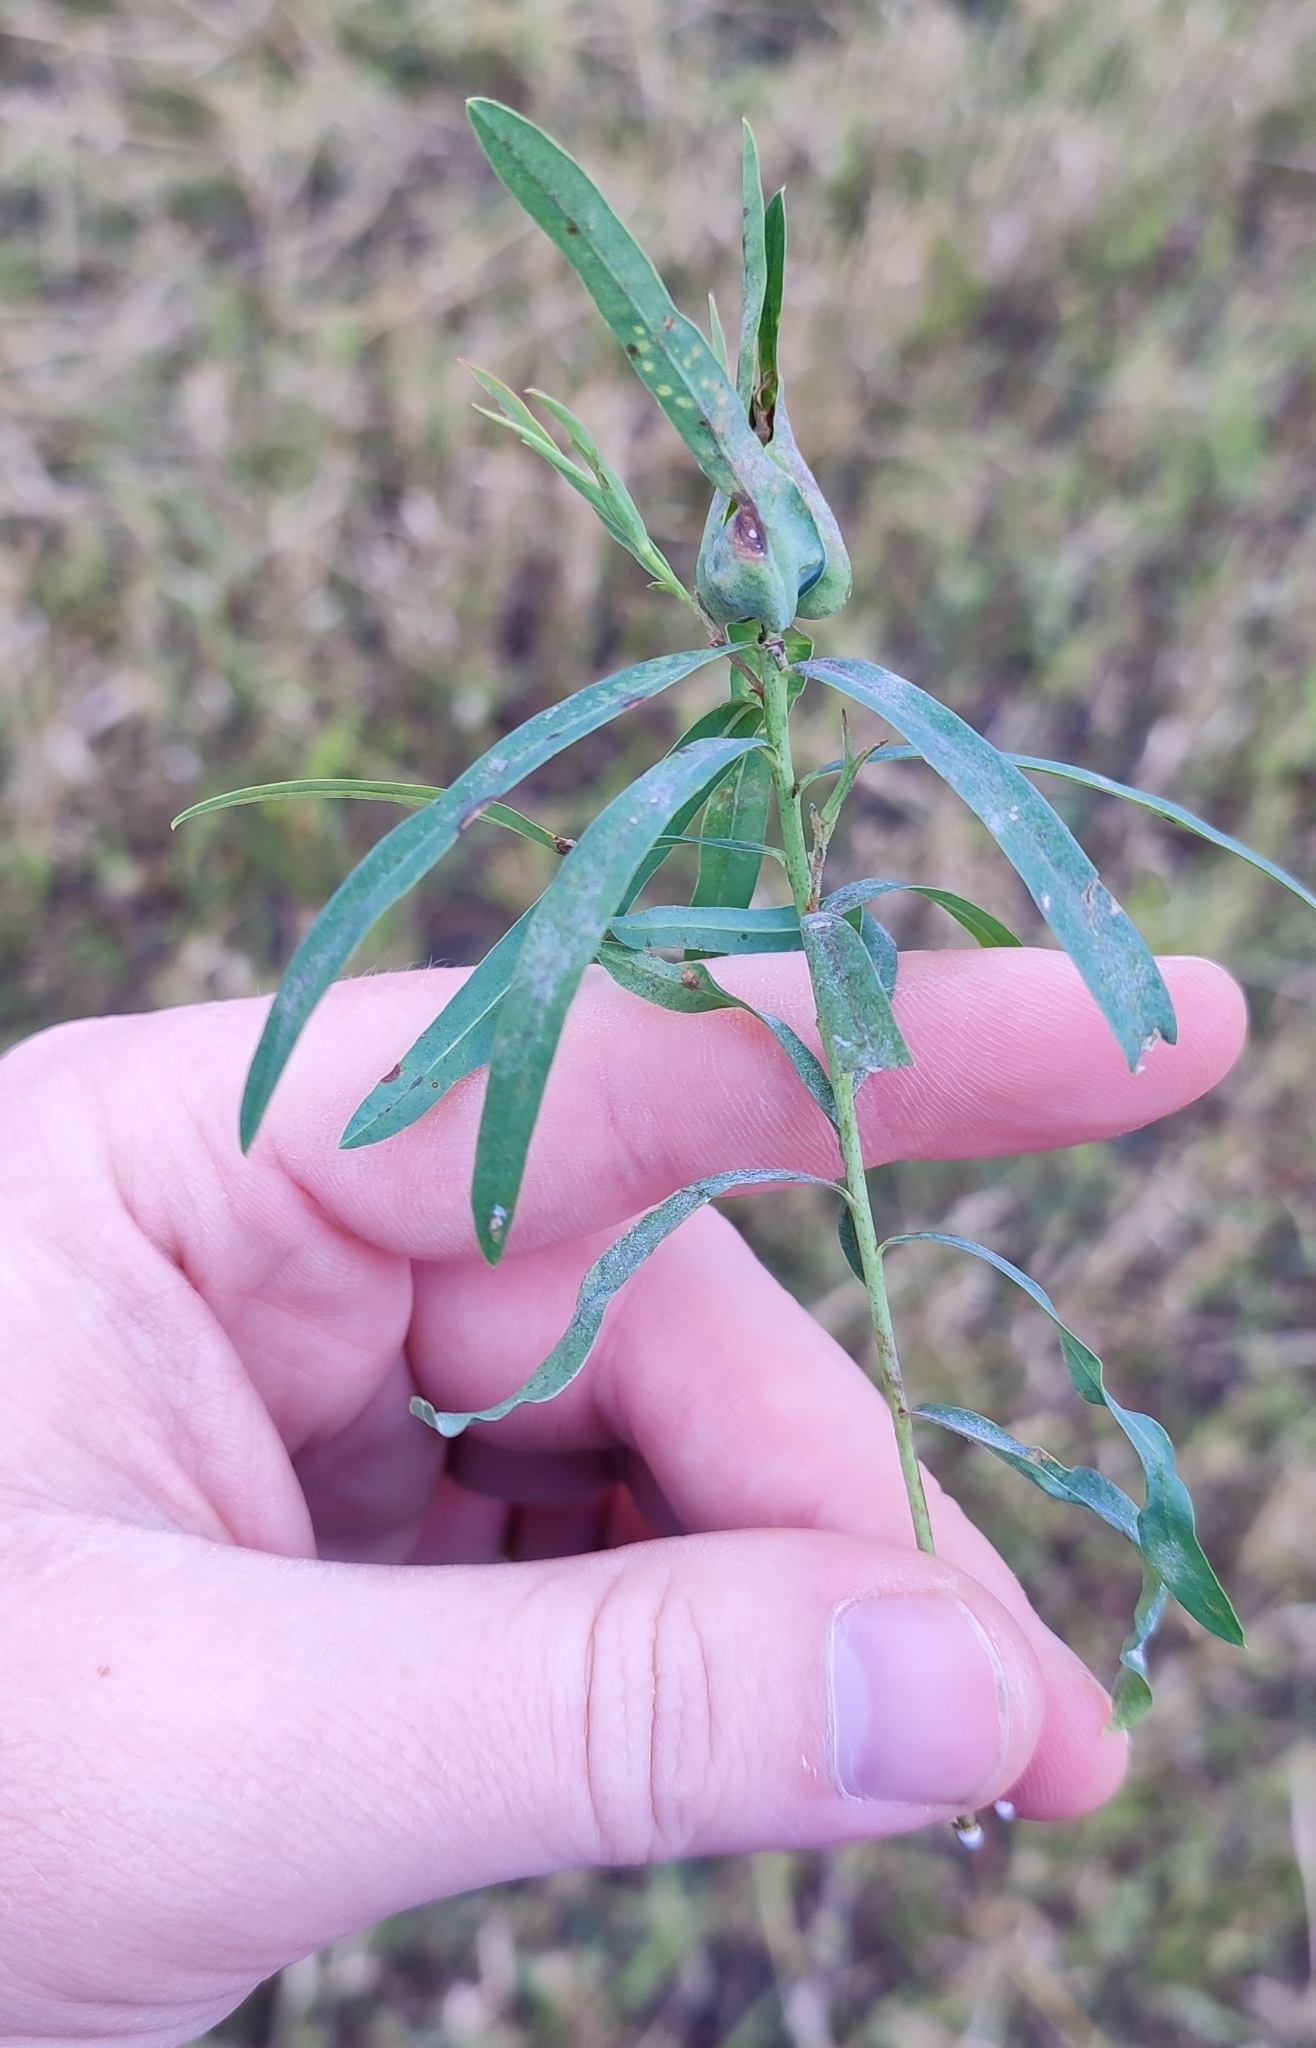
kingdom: Plantae
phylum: Tracheophyta
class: Magnoliopsida
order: Malpighiales
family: Euphorbiaceae
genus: Euphorbia
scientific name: Euphorbia virgata
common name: Leafy spurge
